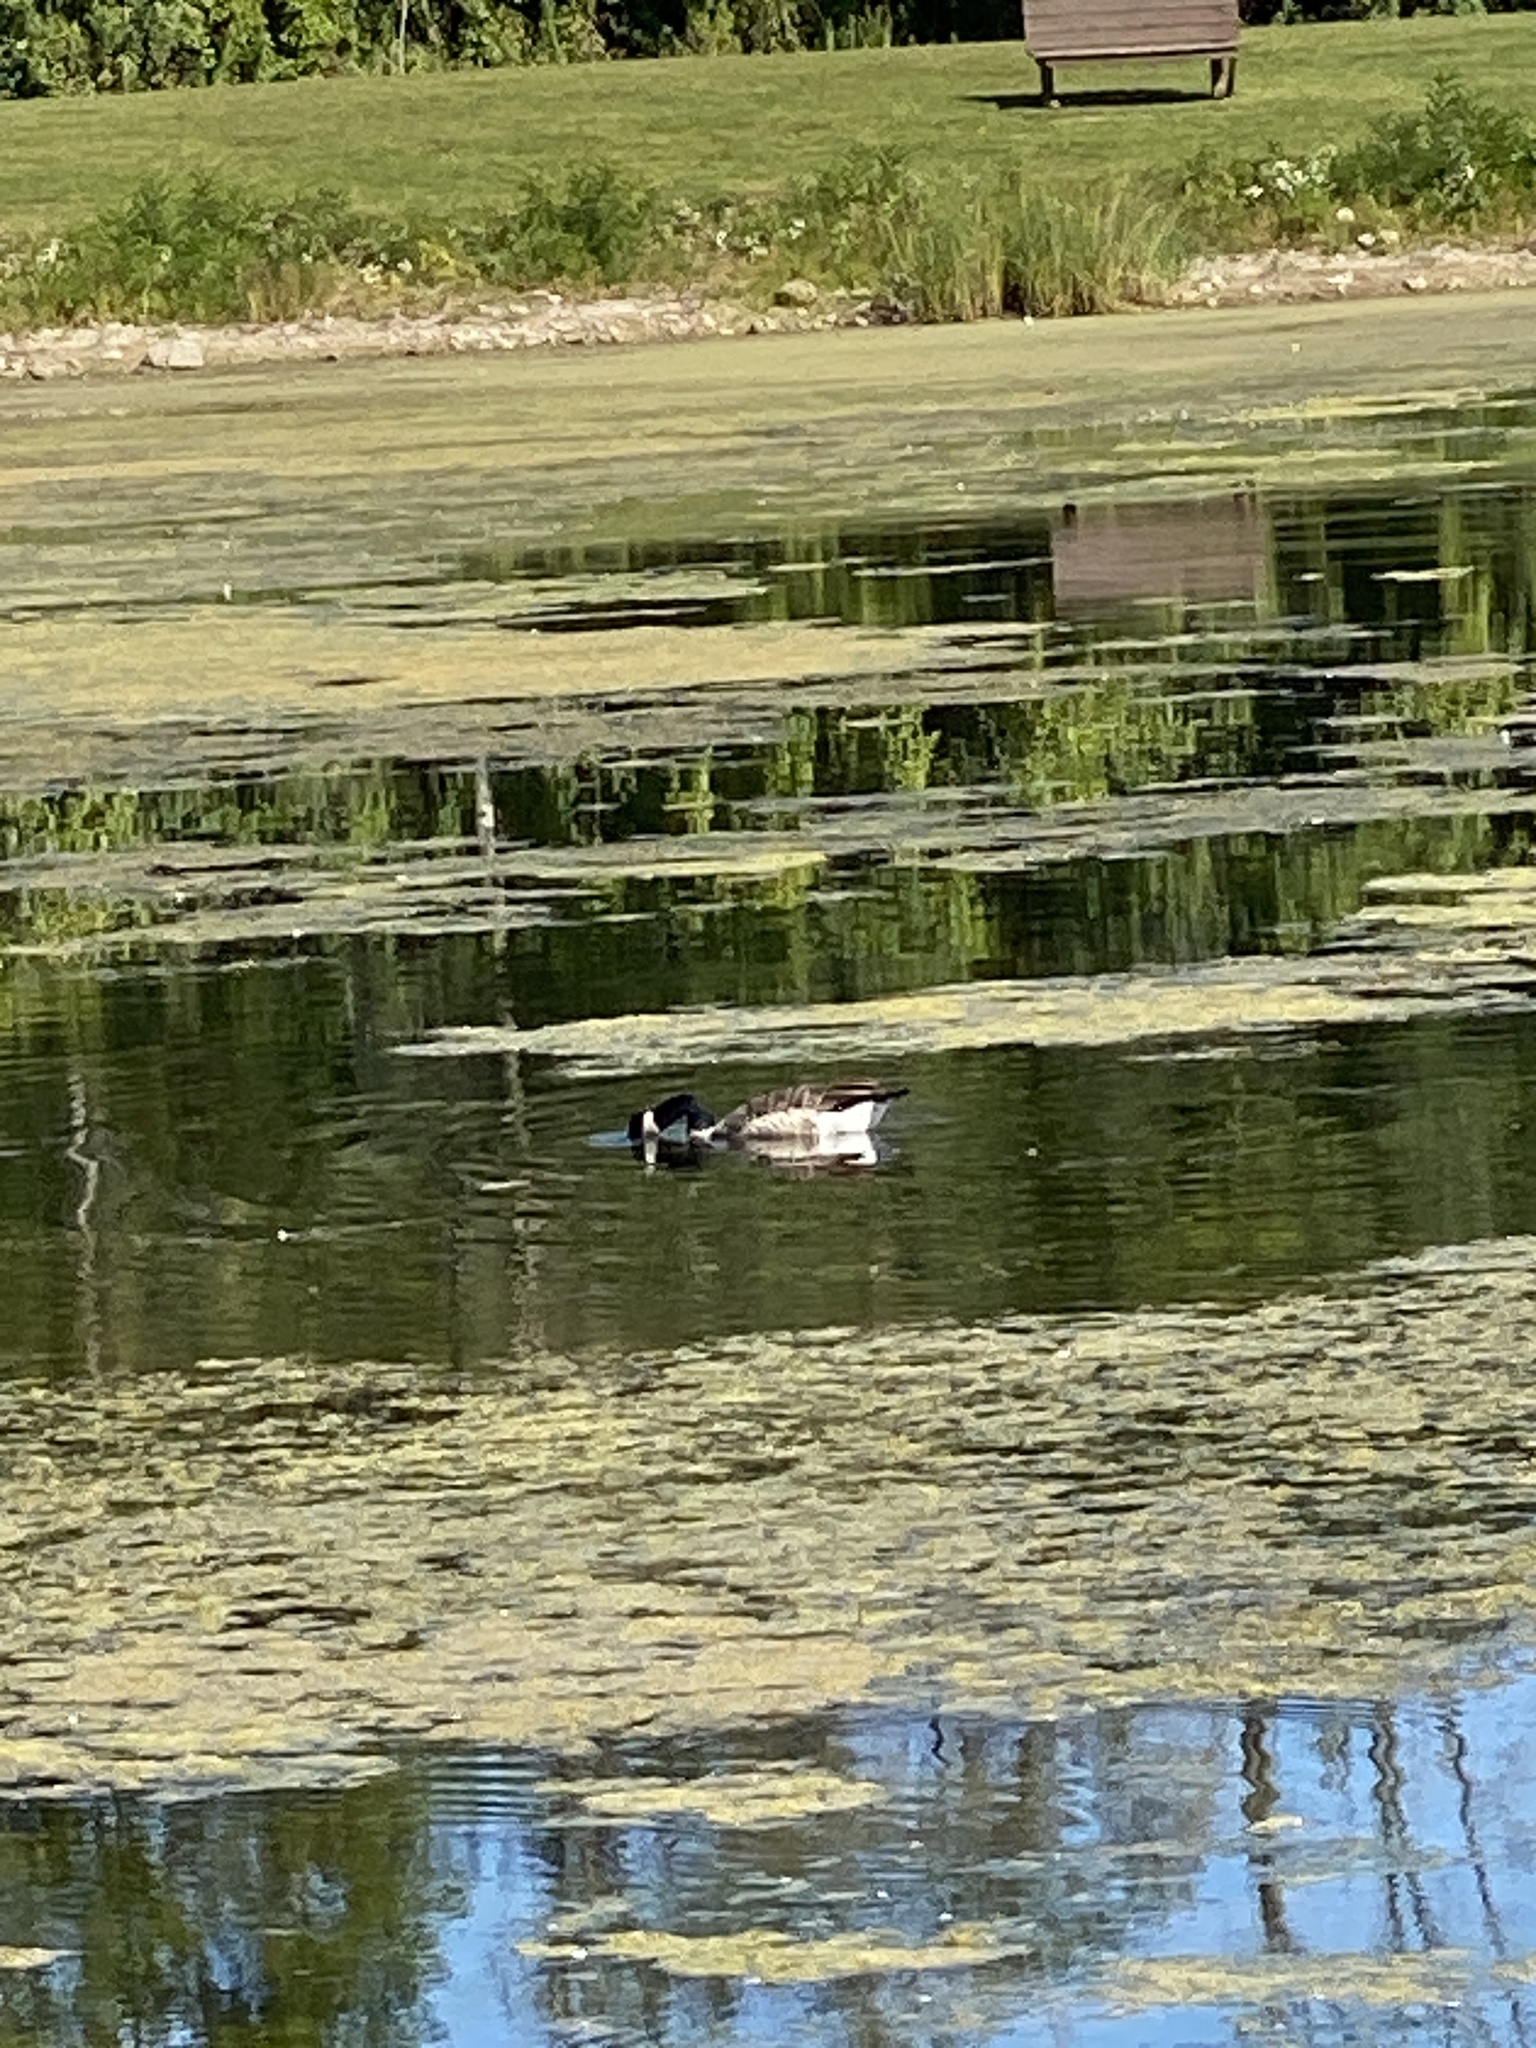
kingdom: Animalia
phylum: Chordata
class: Aves
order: Anseriformes
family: Anatidae
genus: Branta
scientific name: Branta canadensis
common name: Canada goose
